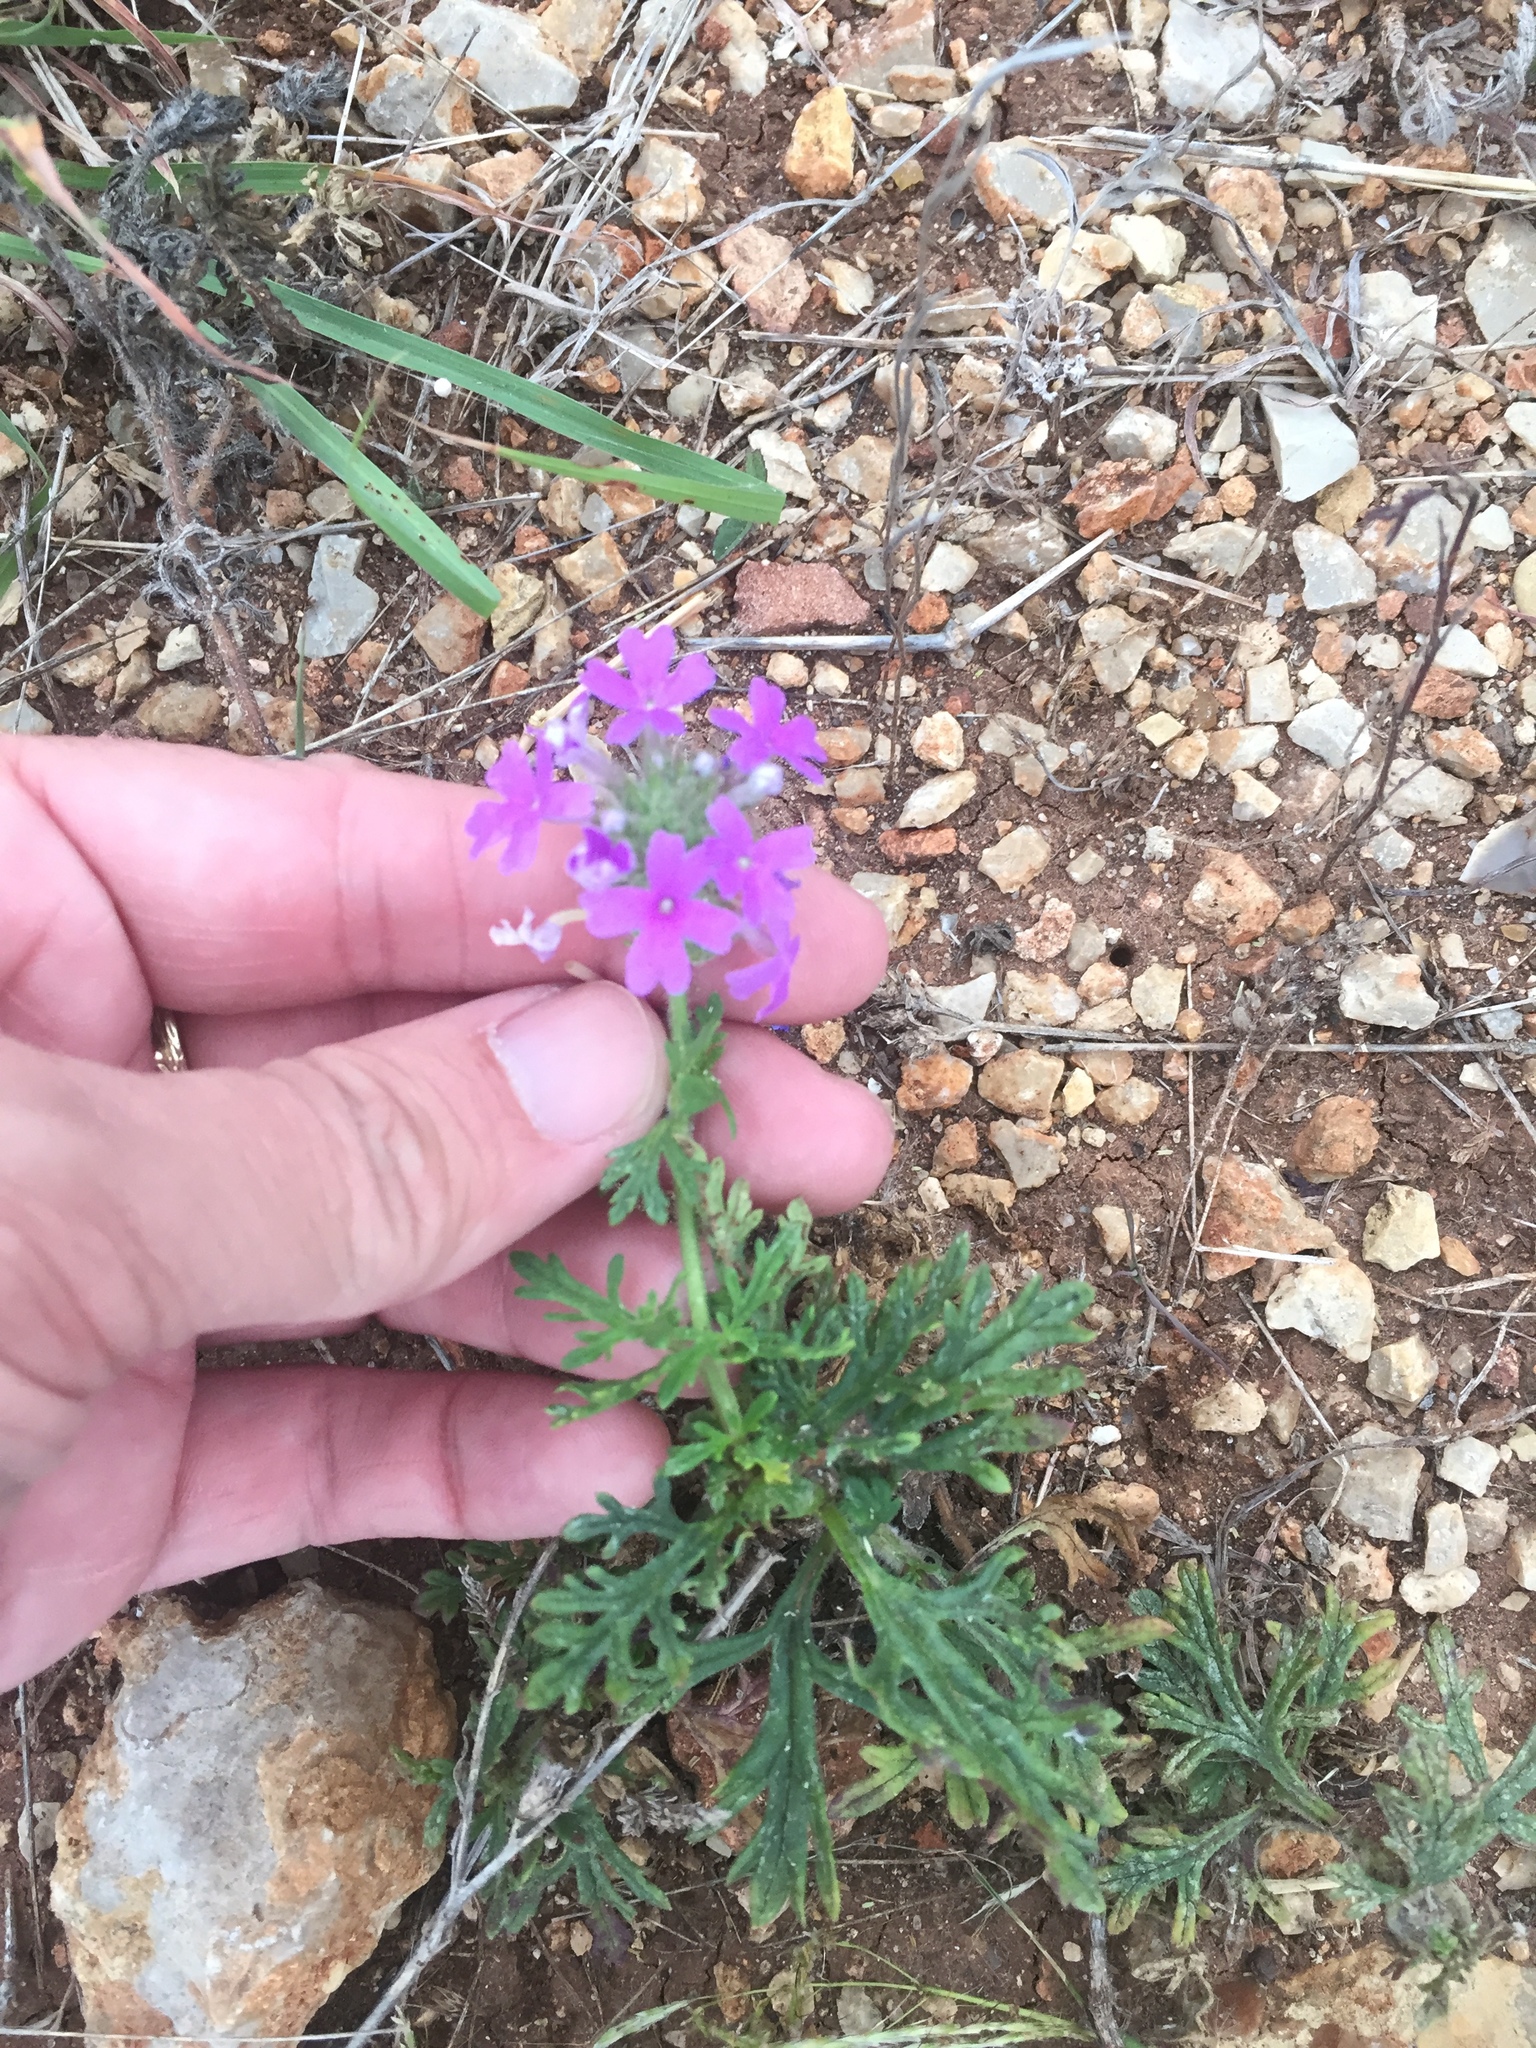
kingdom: Plantae
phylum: Tracheophyta
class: Magnoliopsida
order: Lamiales
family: Verbenaceae
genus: Verbena
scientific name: Verbena bipinnatifida
